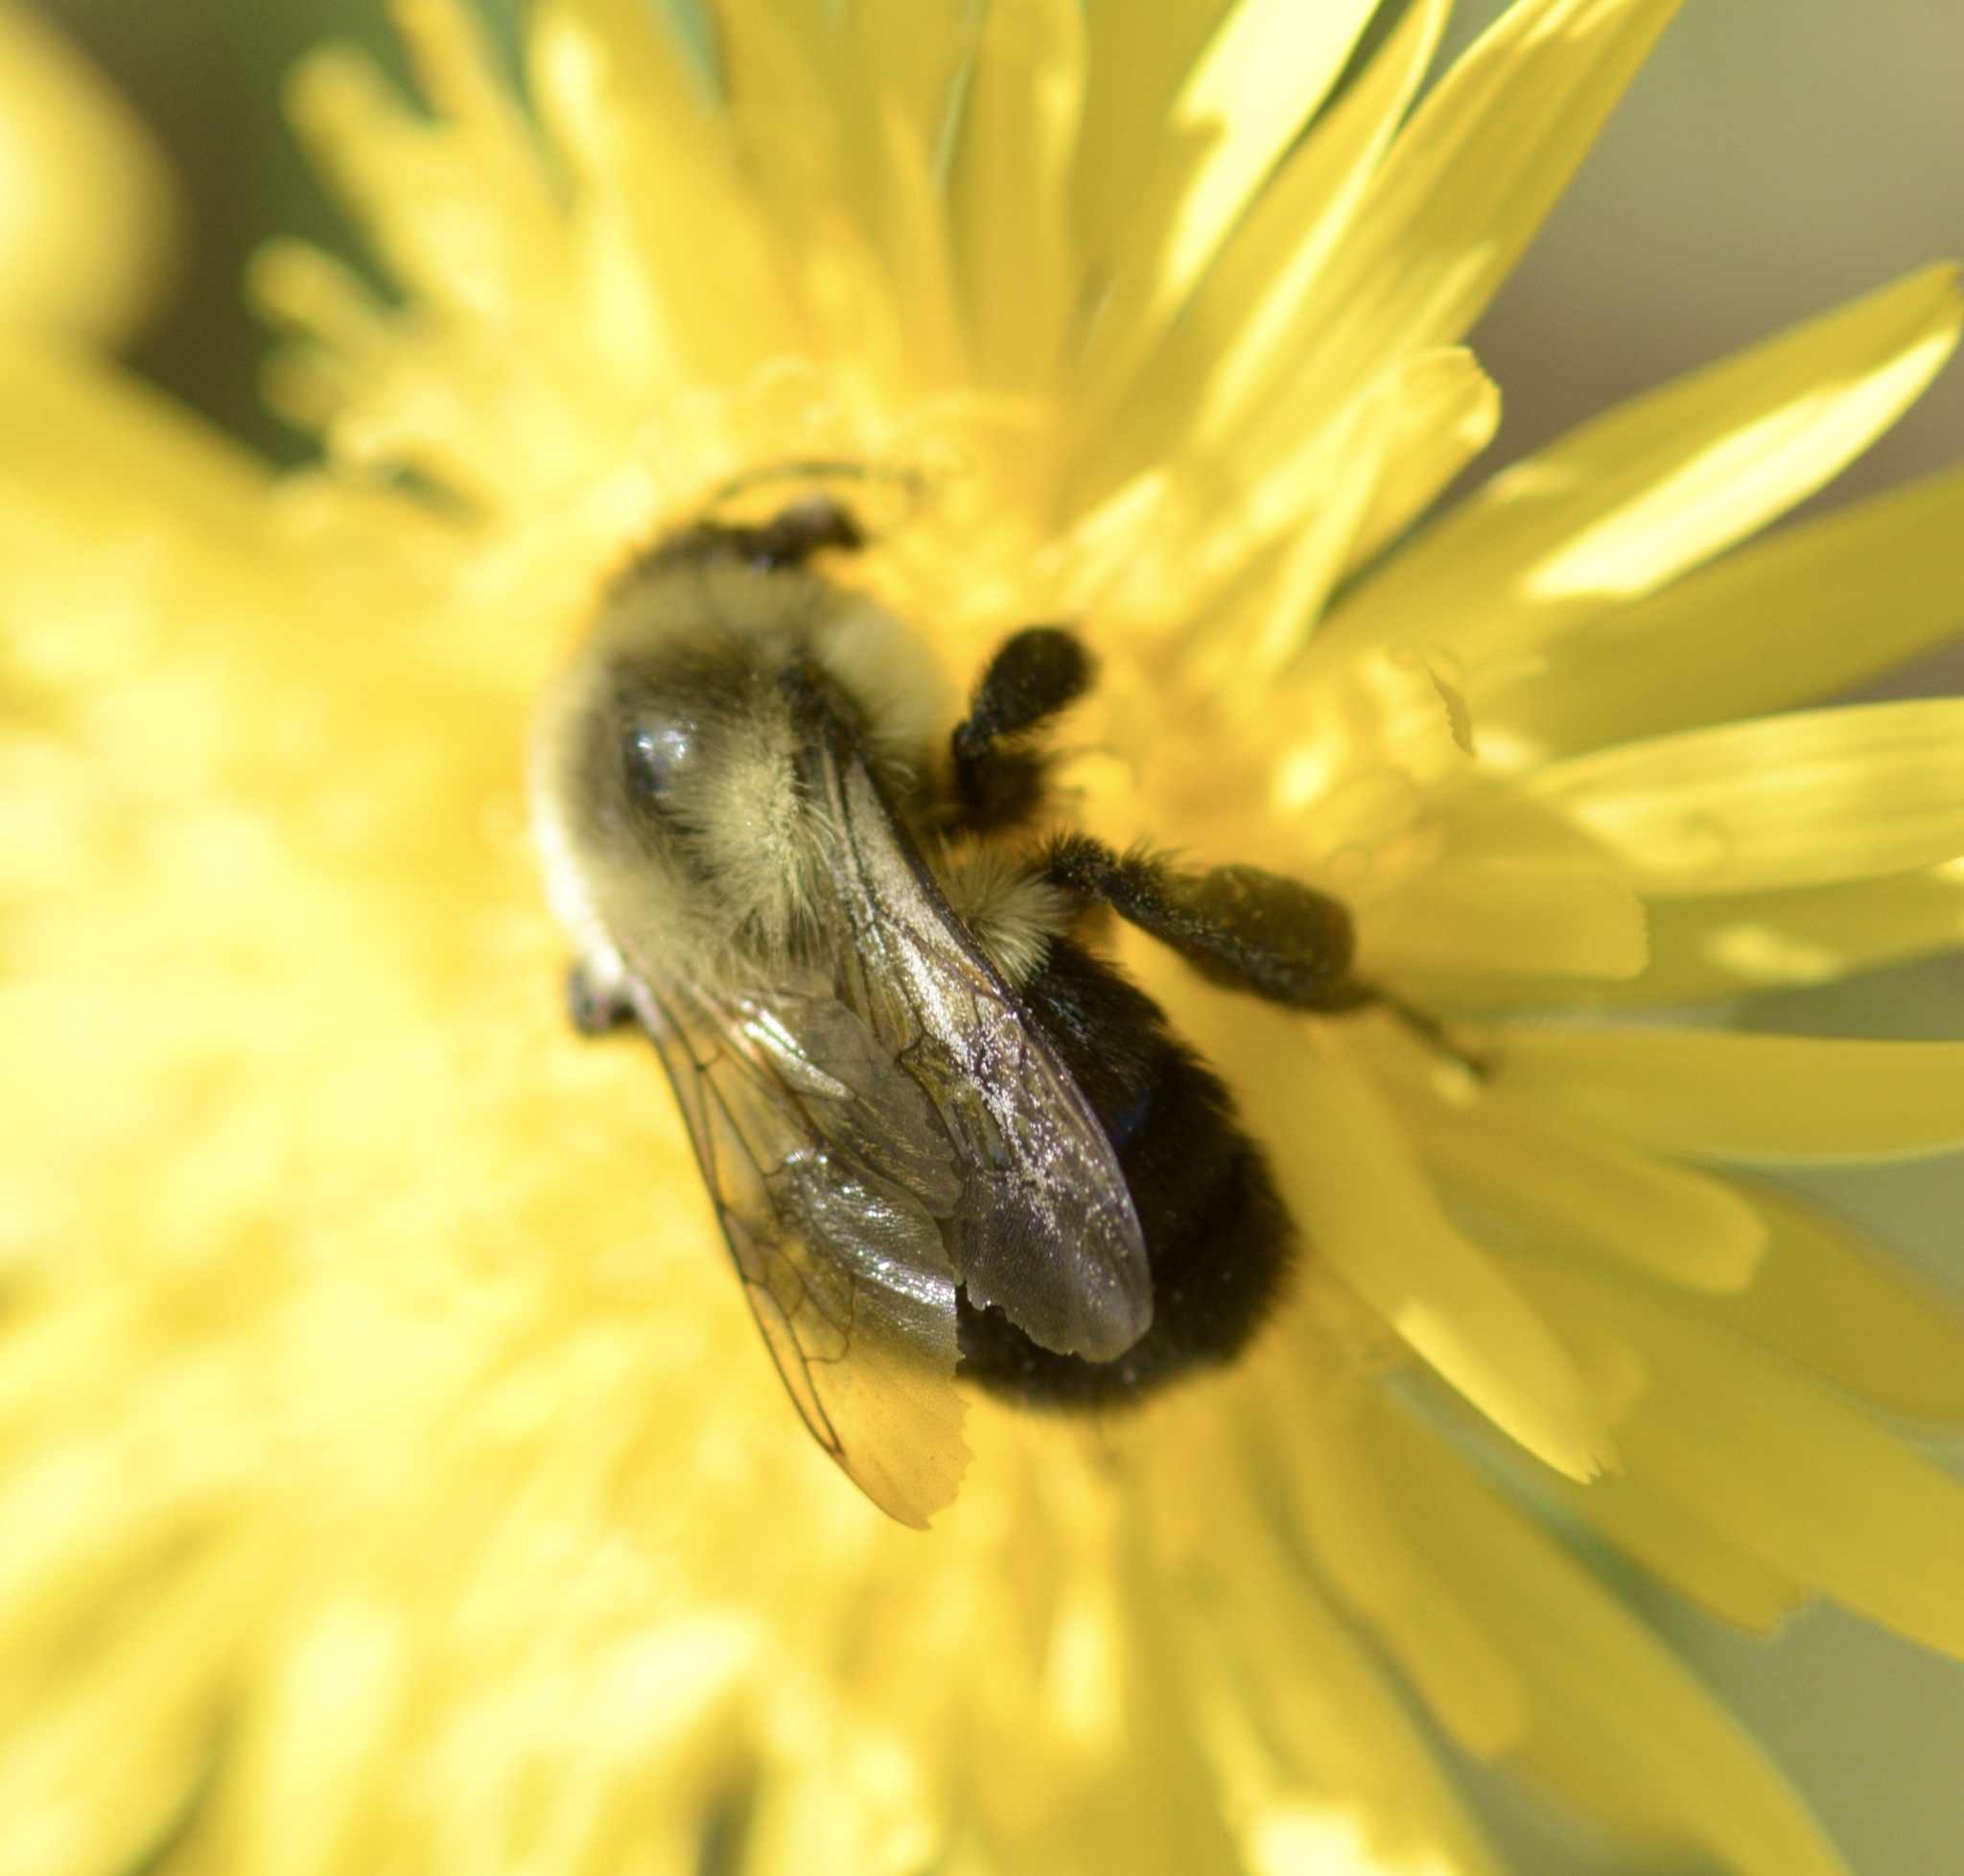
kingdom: Animalia
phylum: Arthropoda
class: Insecta
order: Hymenoptera
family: Apidae
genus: Bombus
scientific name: Bombus impatiens
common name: Common eastern bumble bee
